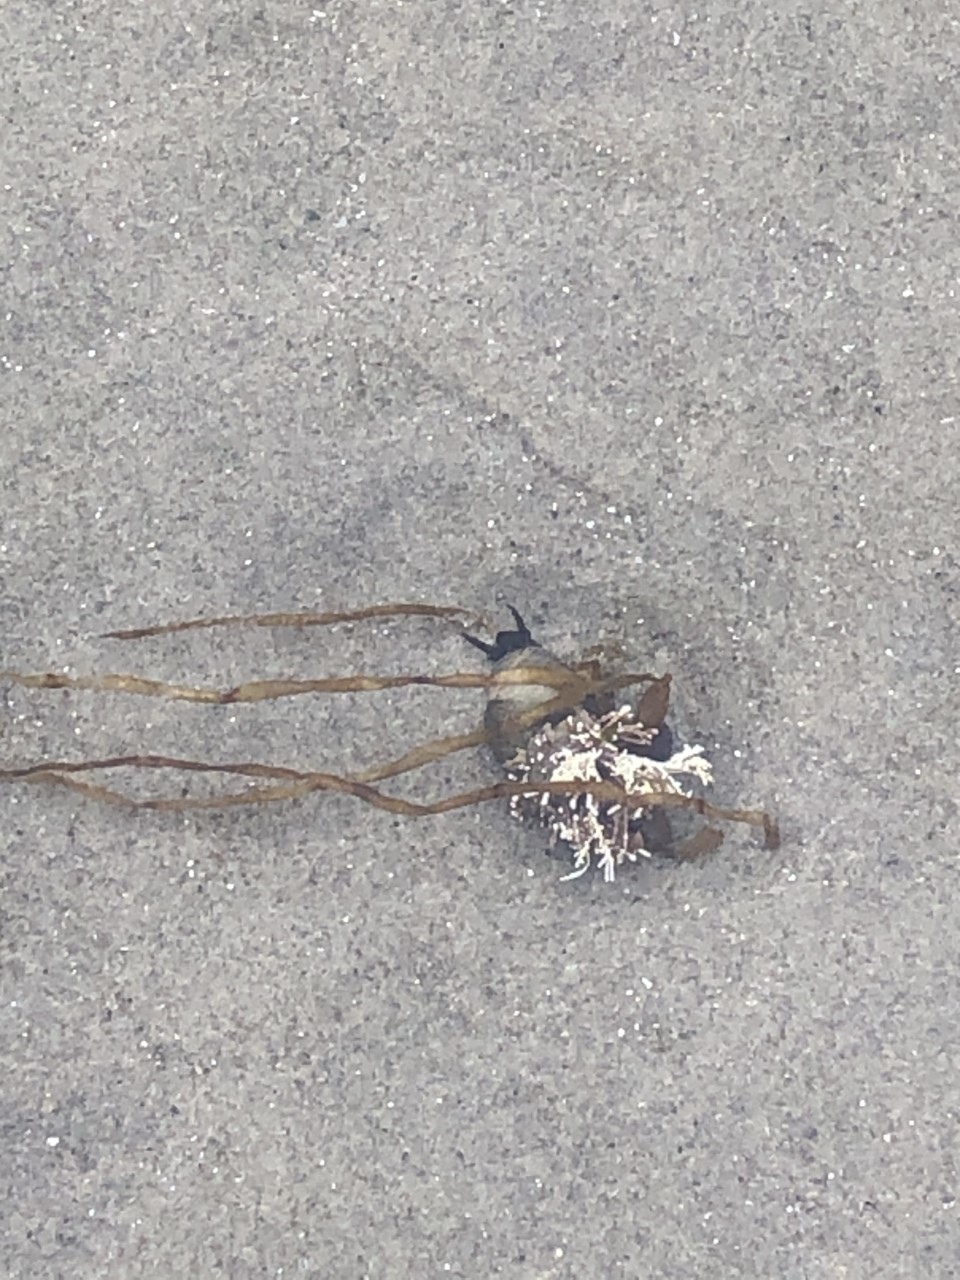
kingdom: Animalia
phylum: Mollusca
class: Gastropoda
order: Littorinimorpha
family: Littorinidae
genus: Littorina
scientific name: Littorina
